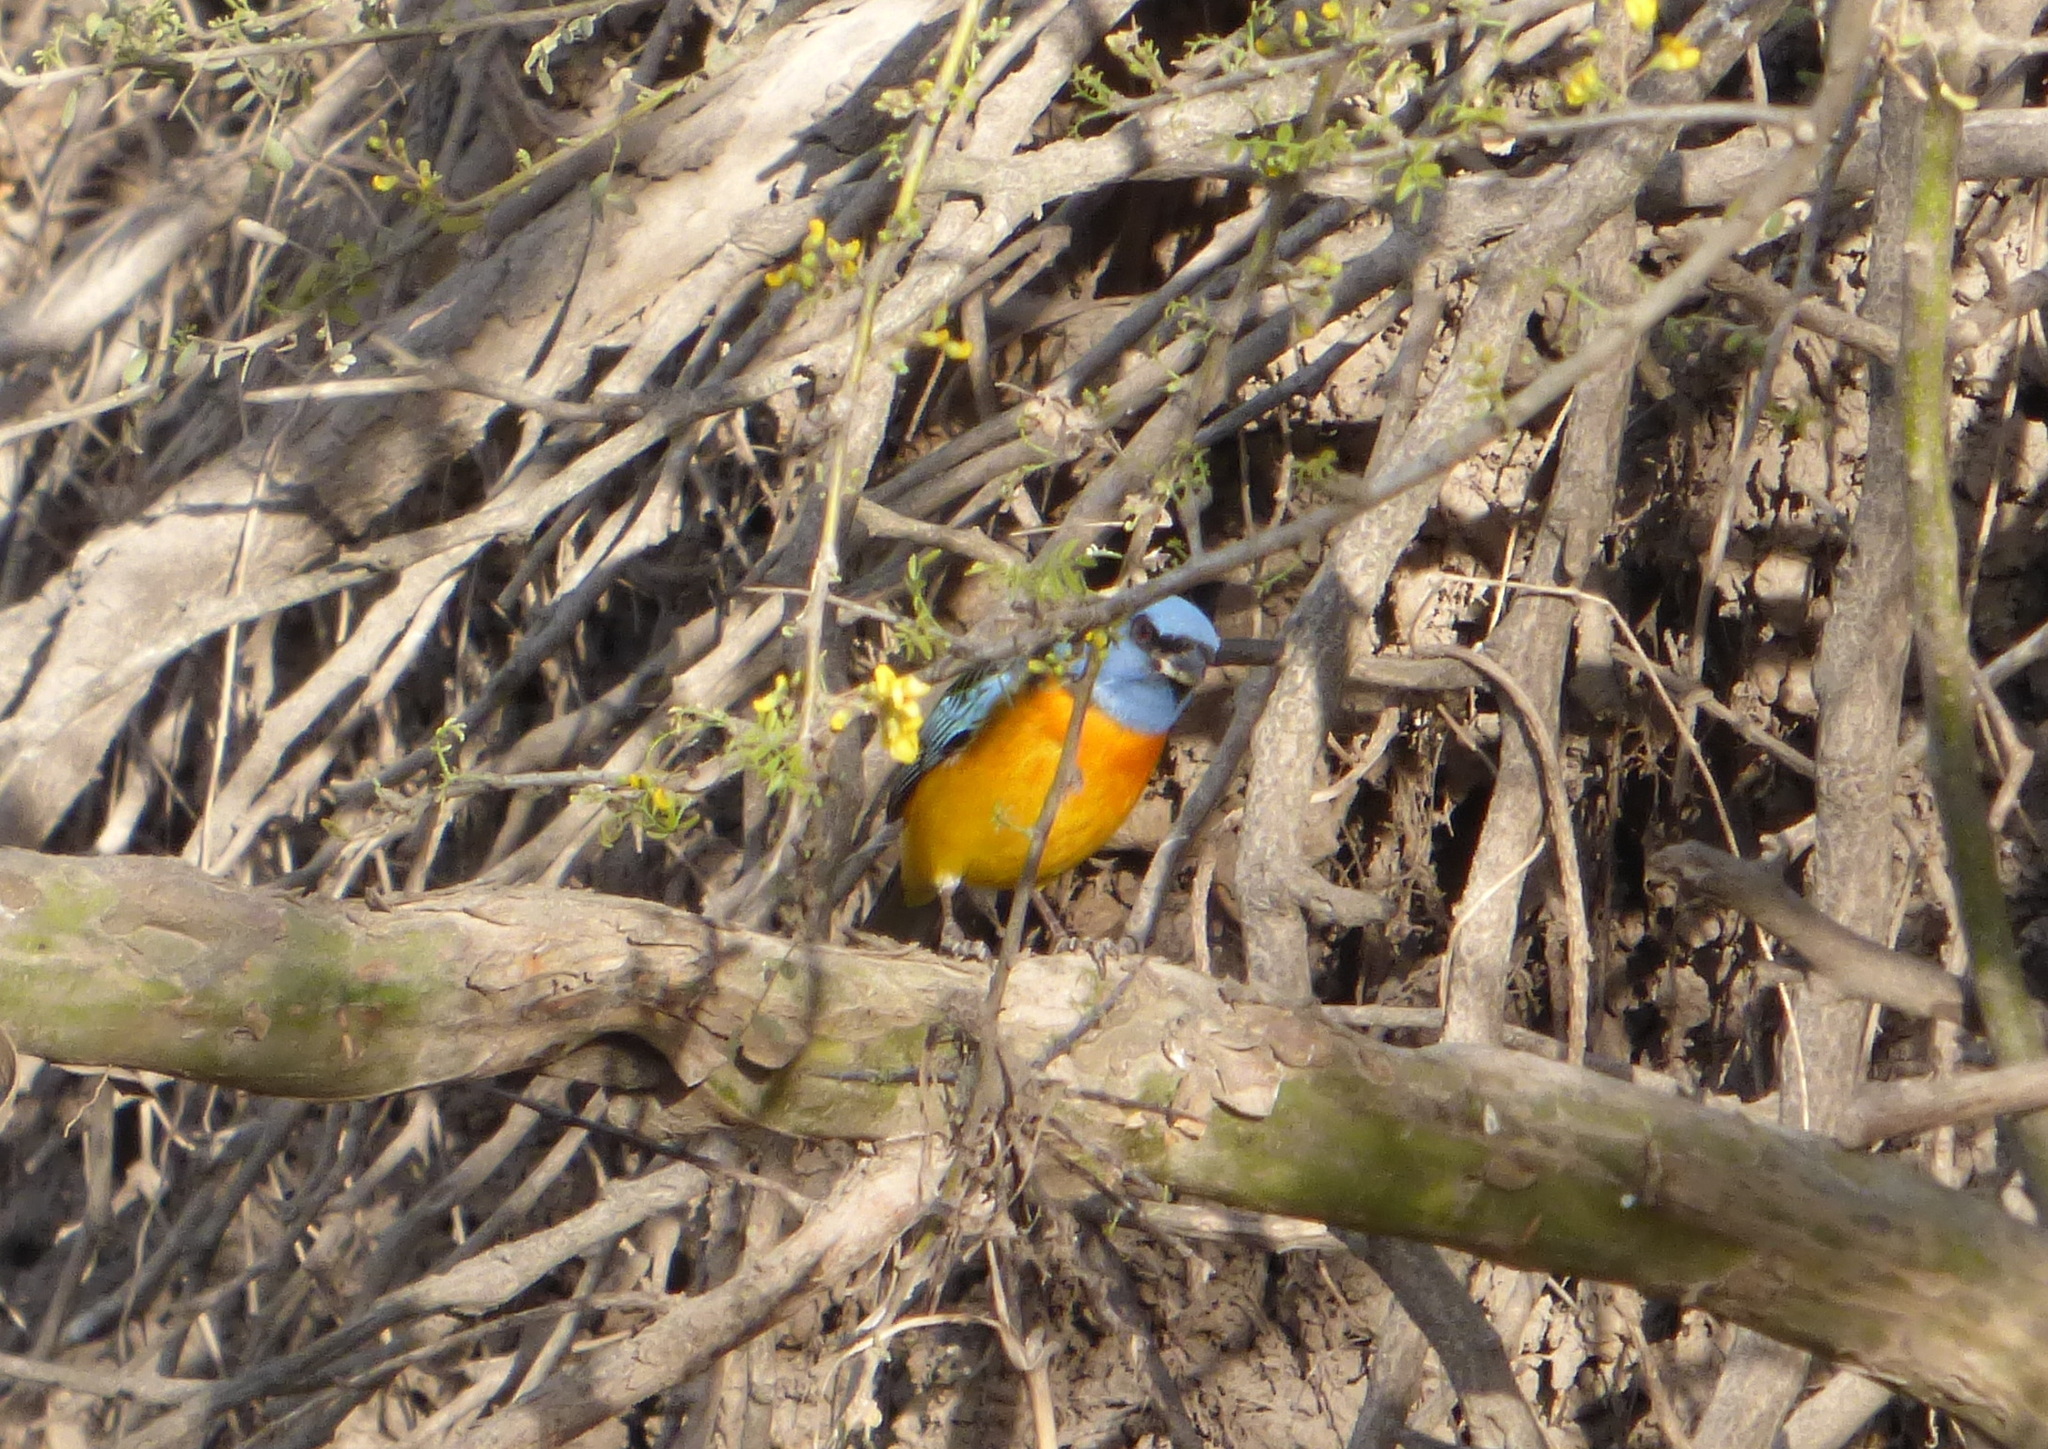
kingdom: Animalia
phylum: Chordata
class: Aves
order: Passeriformes
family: Thraupidae
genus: Rauenia
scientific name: Rauenia bonariensis
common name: Blue-and-yellow tanager
